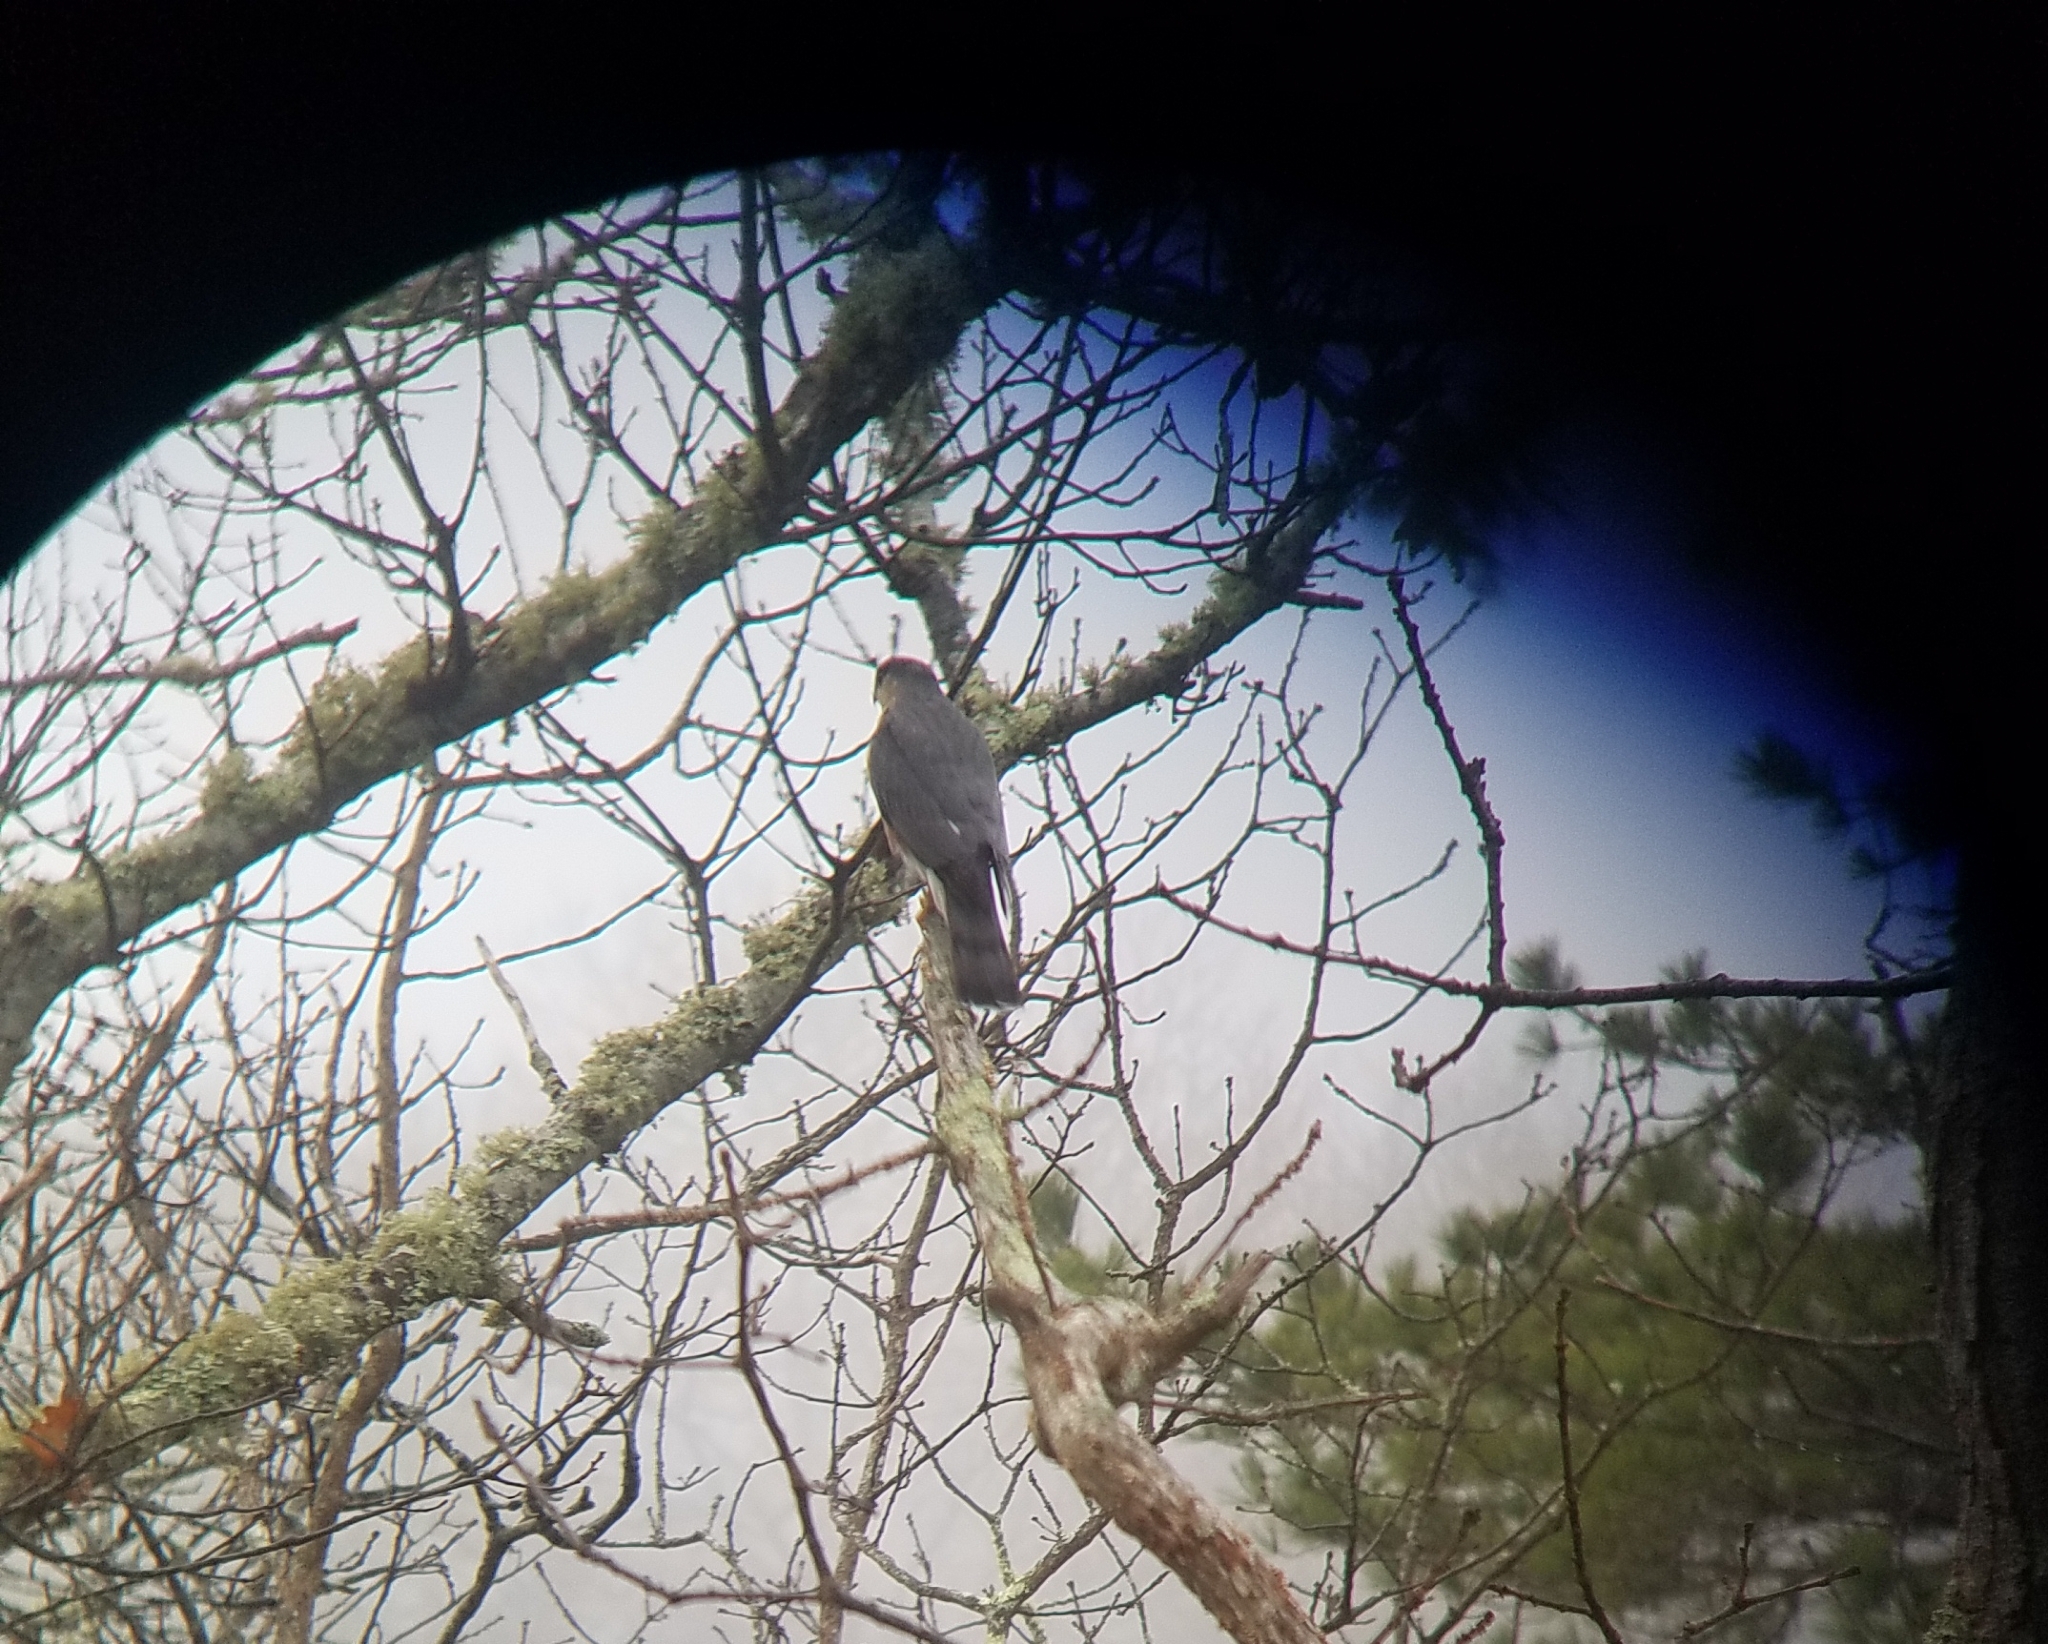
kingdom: Animalia
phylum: Chordata
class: Aves
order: Accipitriformes
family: Accipitridae
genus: Accipiter
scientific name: Accipiter striatus
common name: Sharp-shinned hawk
